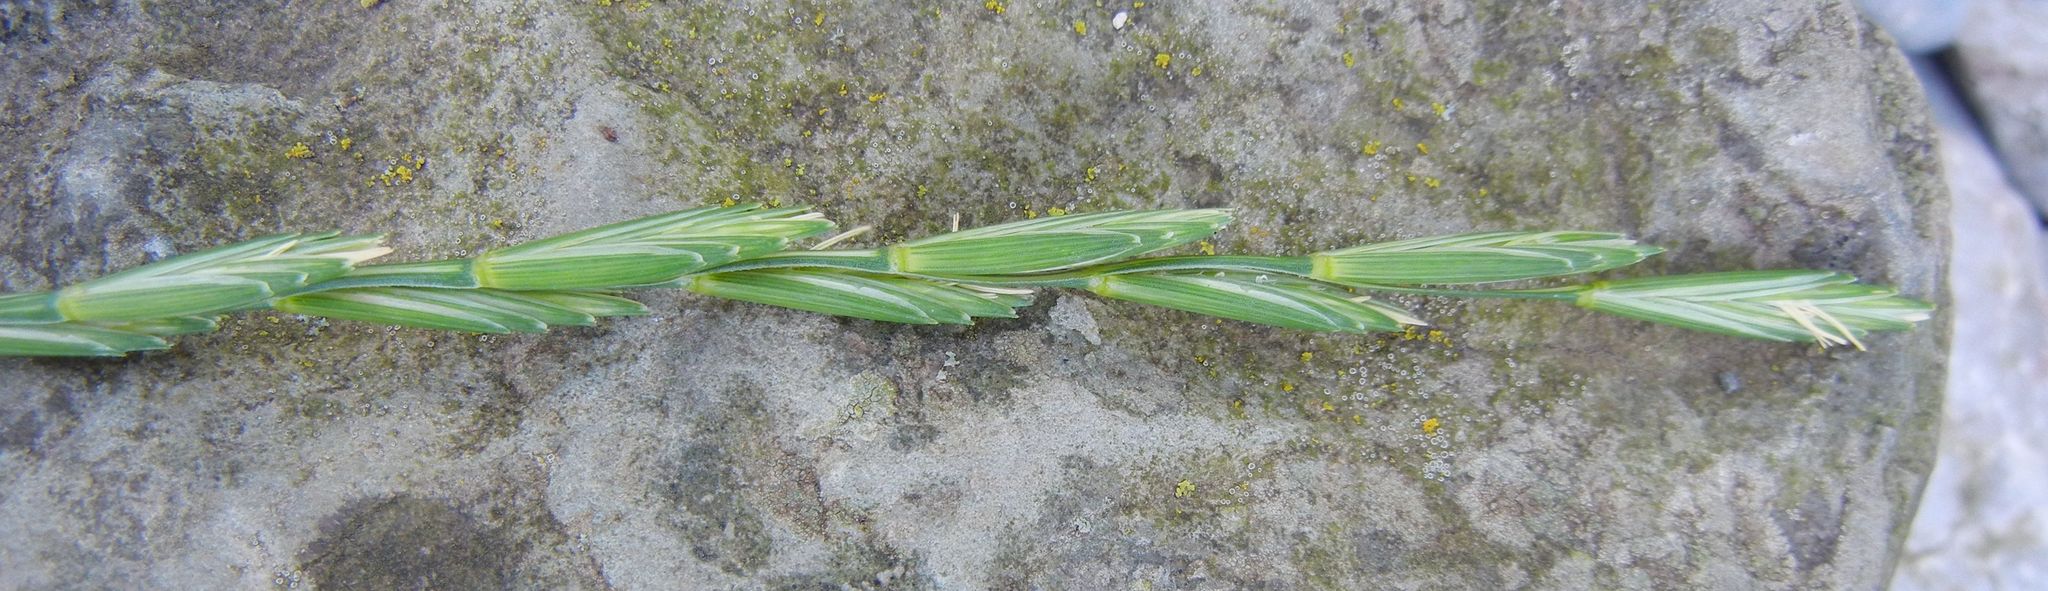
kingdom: Plantae
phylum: Tracheophyta
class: Liliopsida
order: Poales
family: Poaceae
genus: Elymus
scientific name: Elymus repens
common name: Quackgrass
